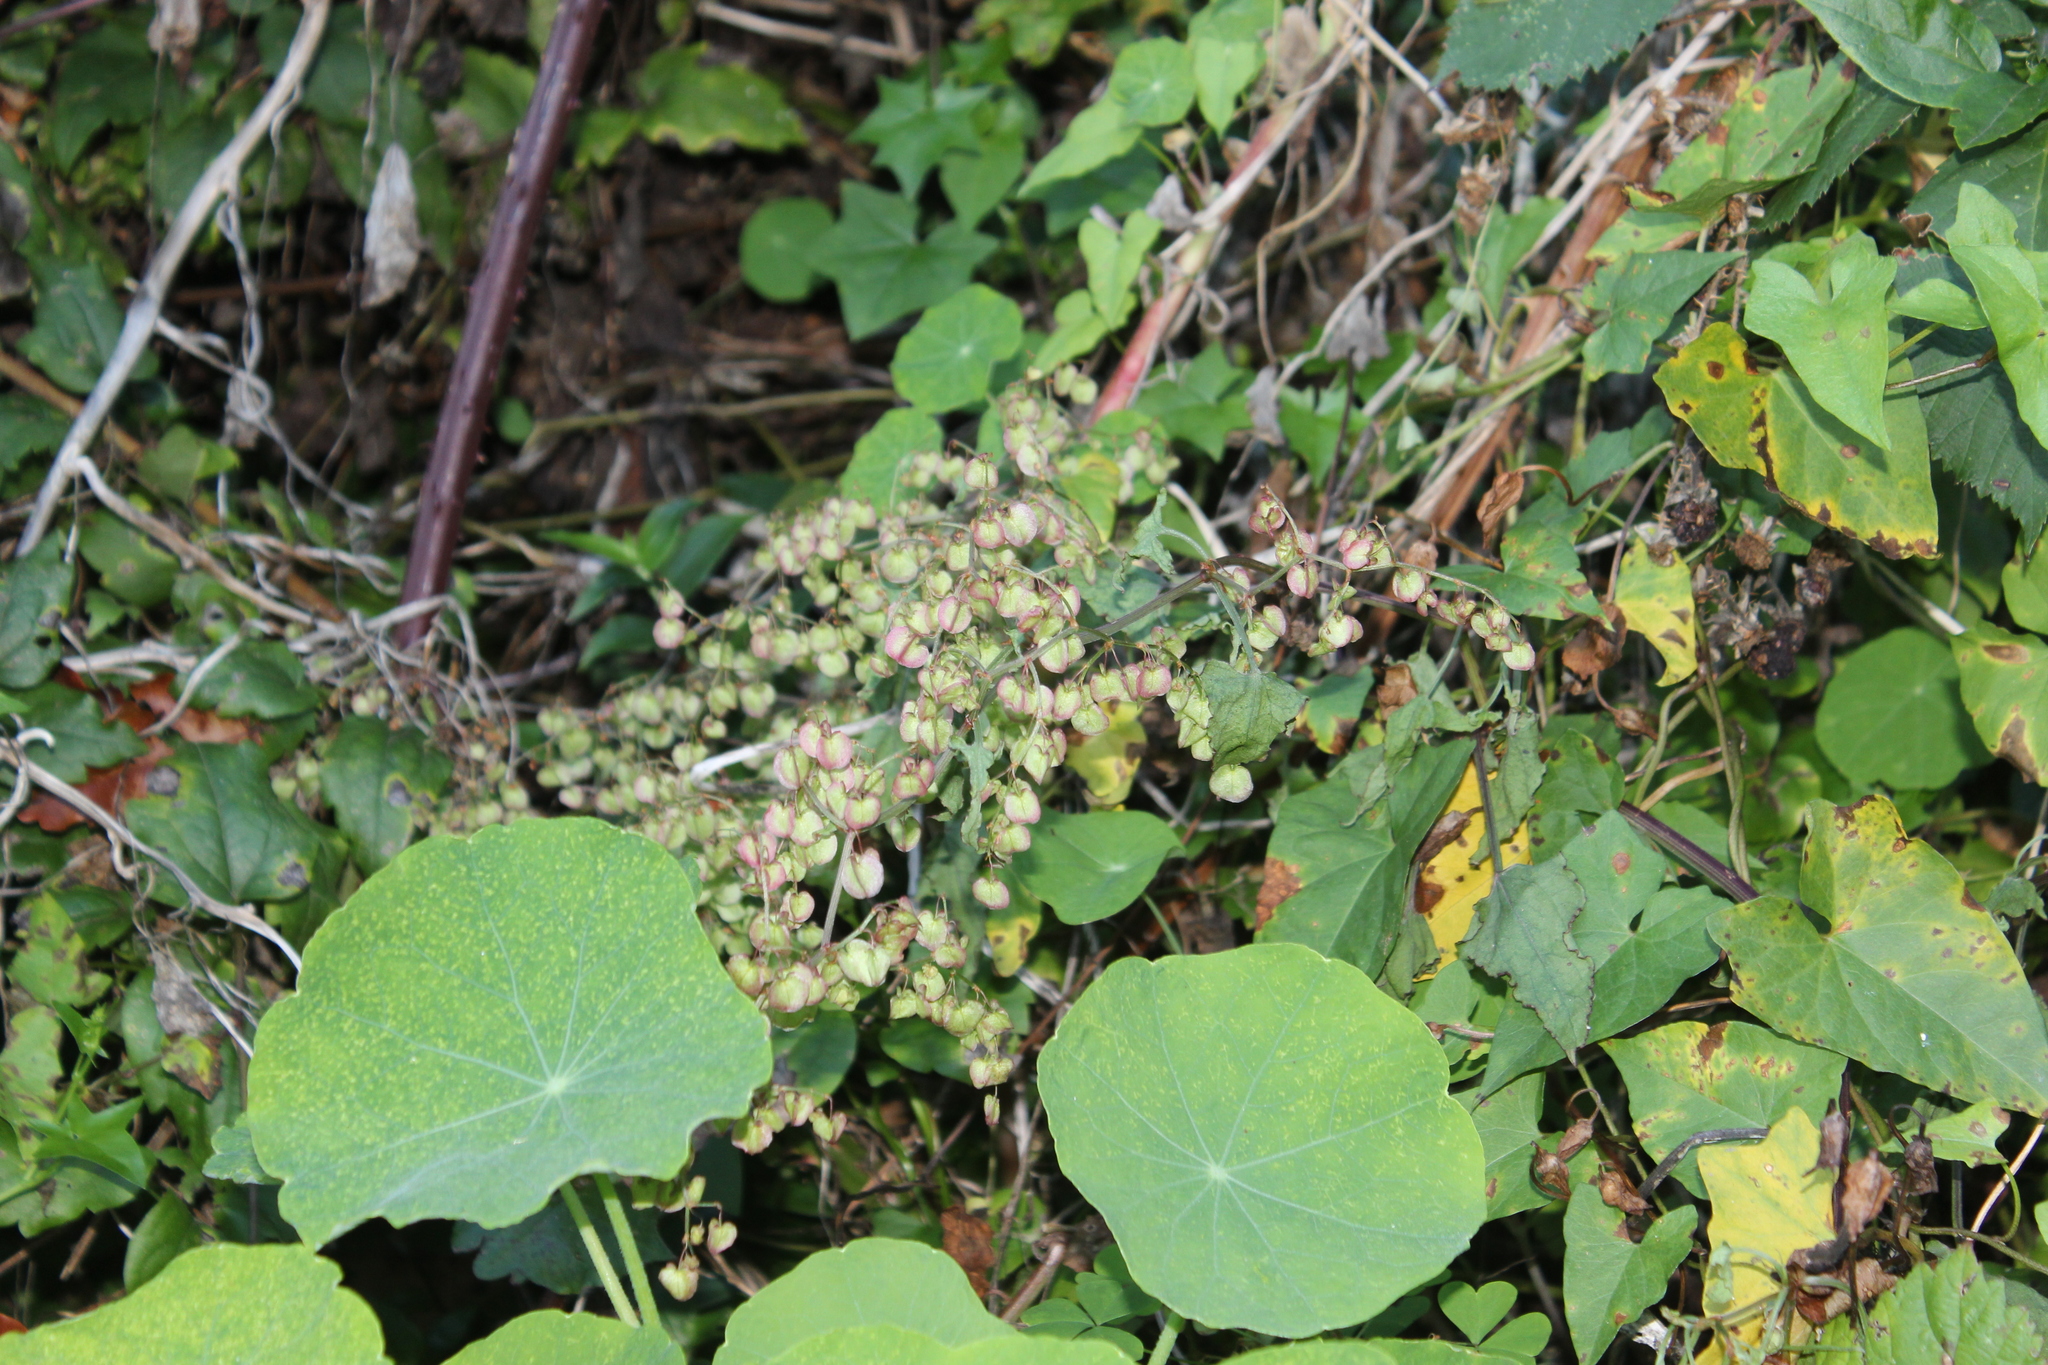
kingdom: Plantae
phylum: Tracheophyta
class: Magnoliopsida
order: Caryophyllales
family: Polygonaceae
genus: Rumex
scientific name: Rumex sagittatus
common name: Climbing dock
